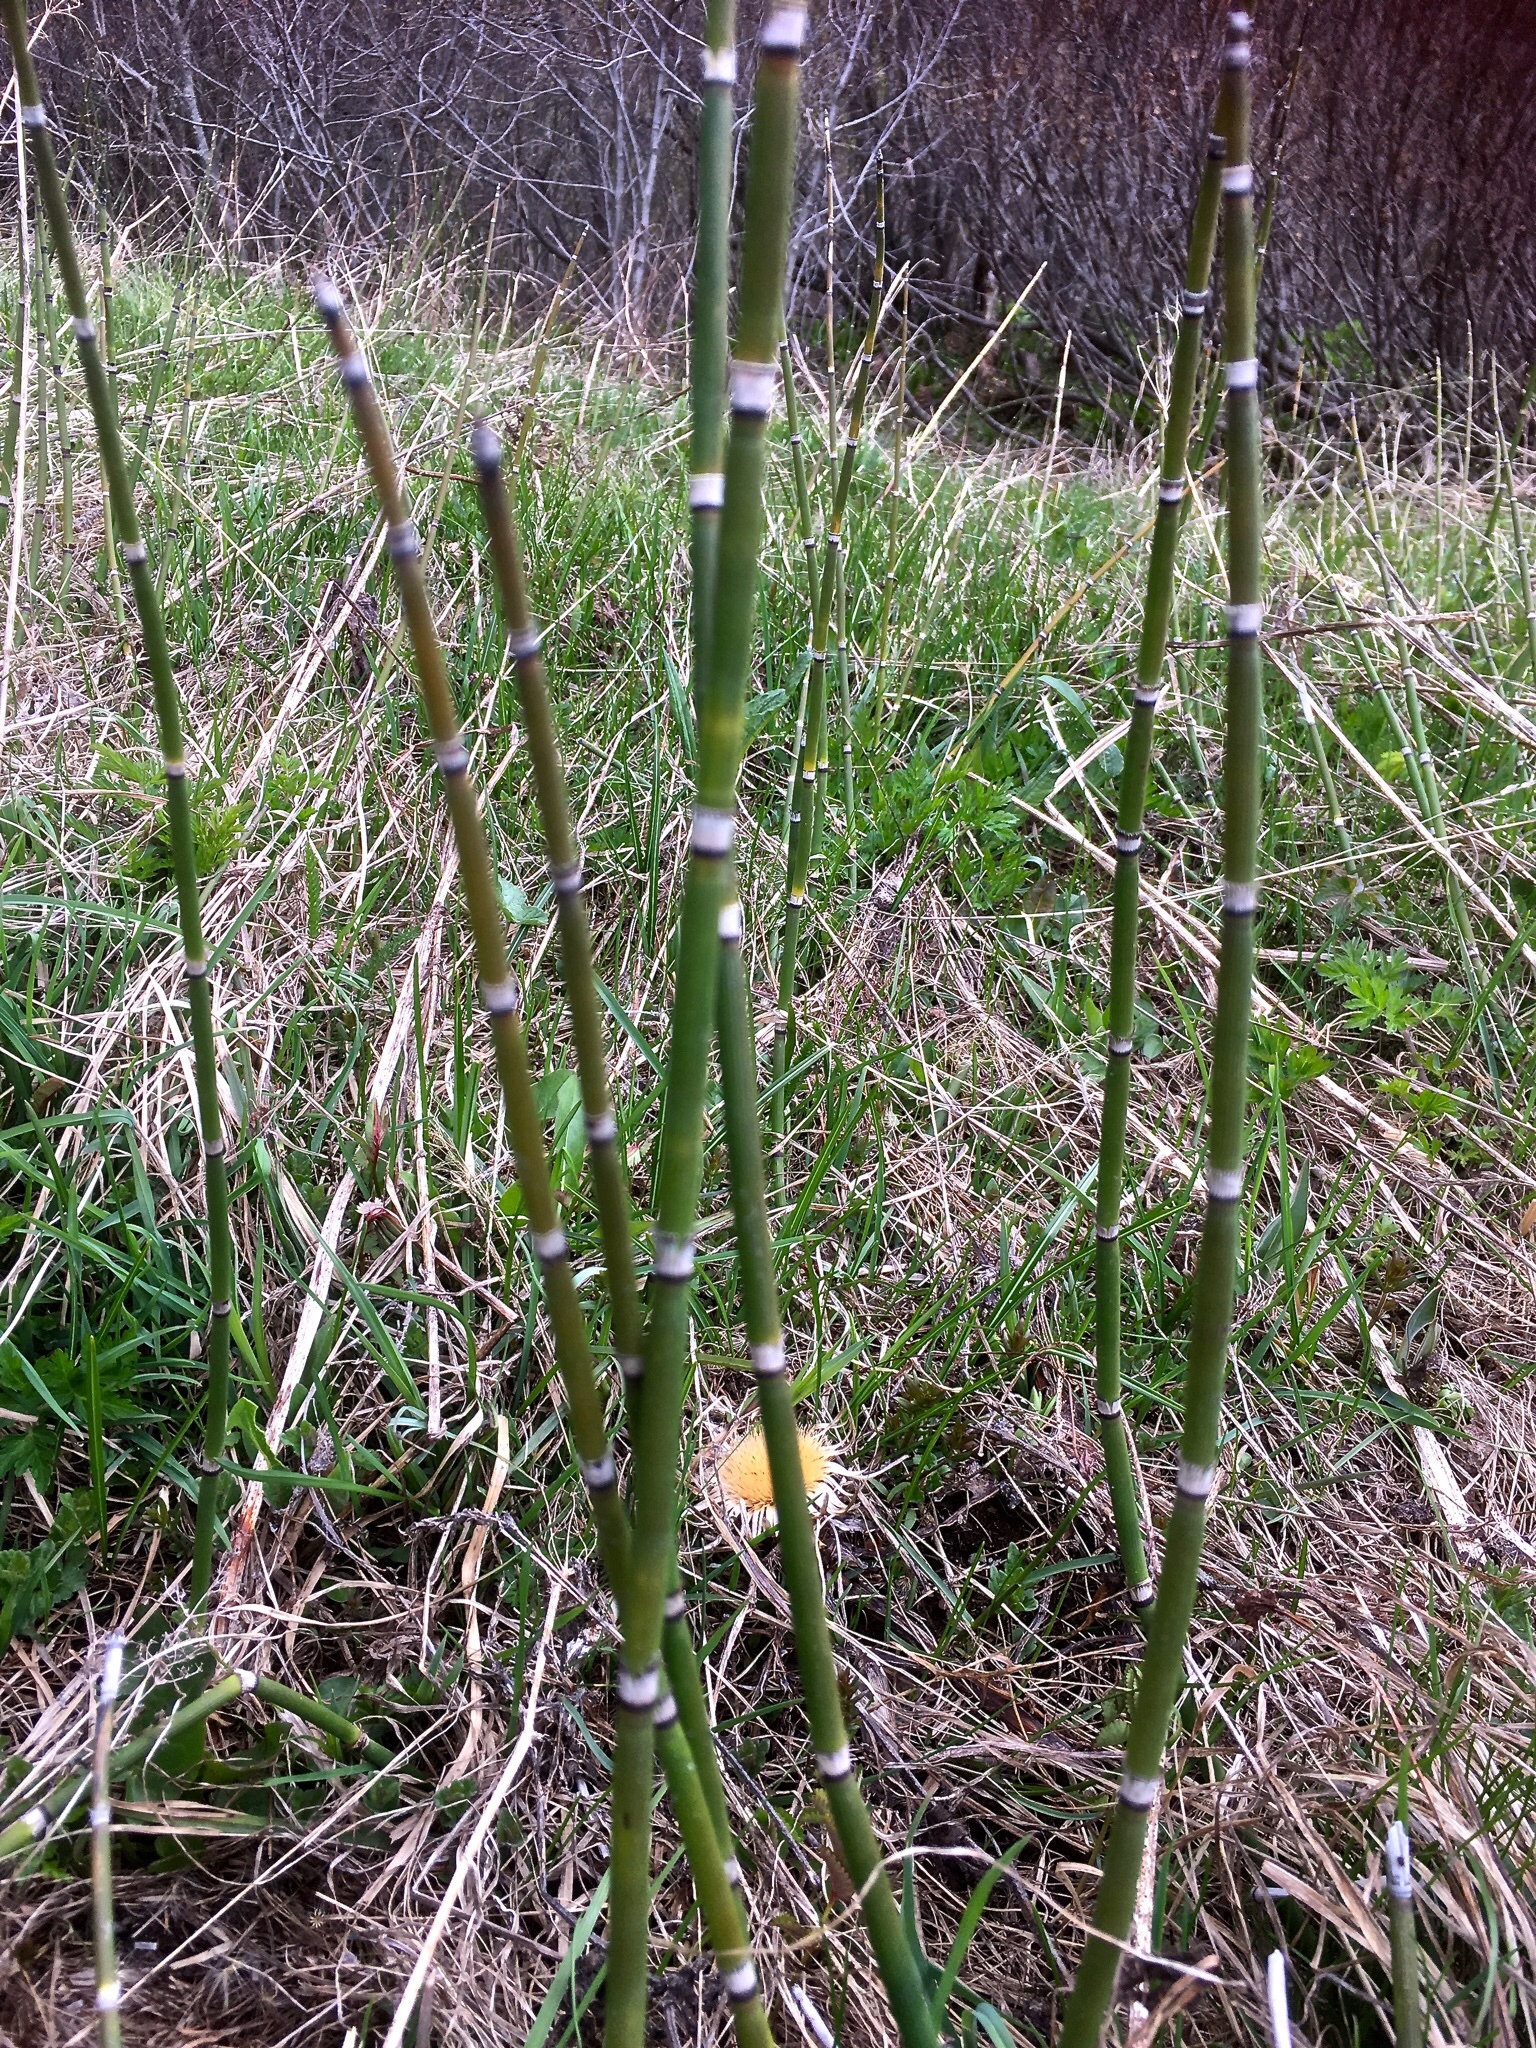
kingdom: Plantae
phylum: Tracheophyta
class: Polypodiopsida
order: Equisetales
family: Equisetaceae
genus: Equisetum
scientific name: Equisetum hyemale
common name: Rough horsetail
